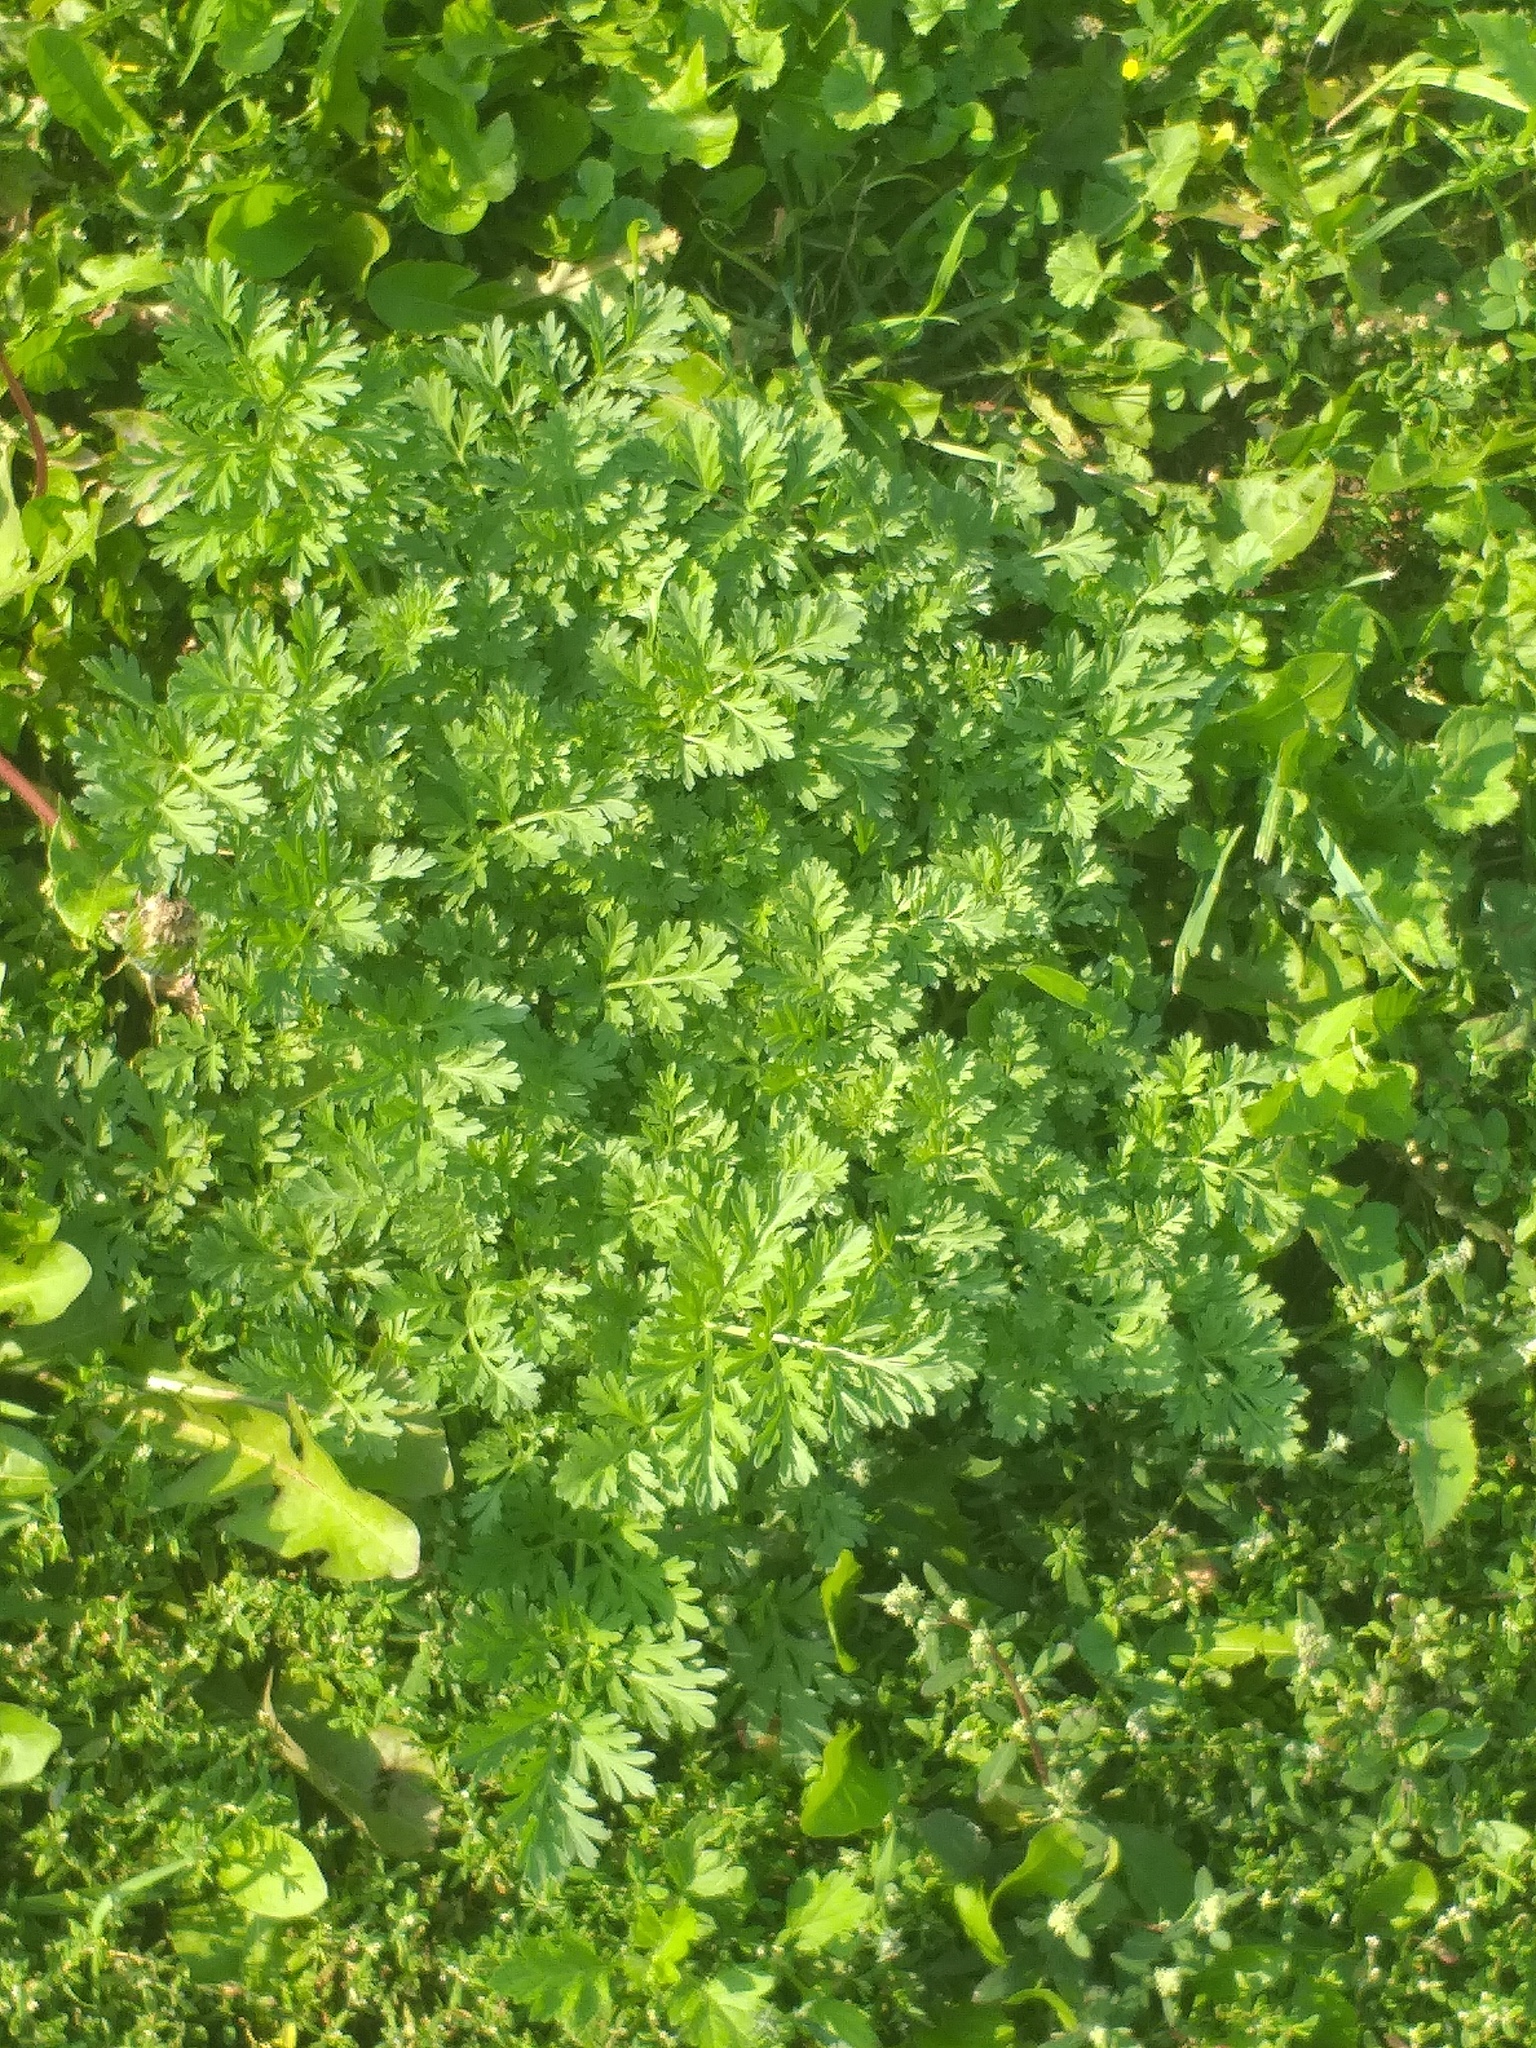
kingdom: Plantae
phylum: Tracheophyta
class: Magnoliopsida
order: Asterales
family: Asteraceae
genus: Artemisia
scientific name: Artemisia absinthium
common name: Wormwood
